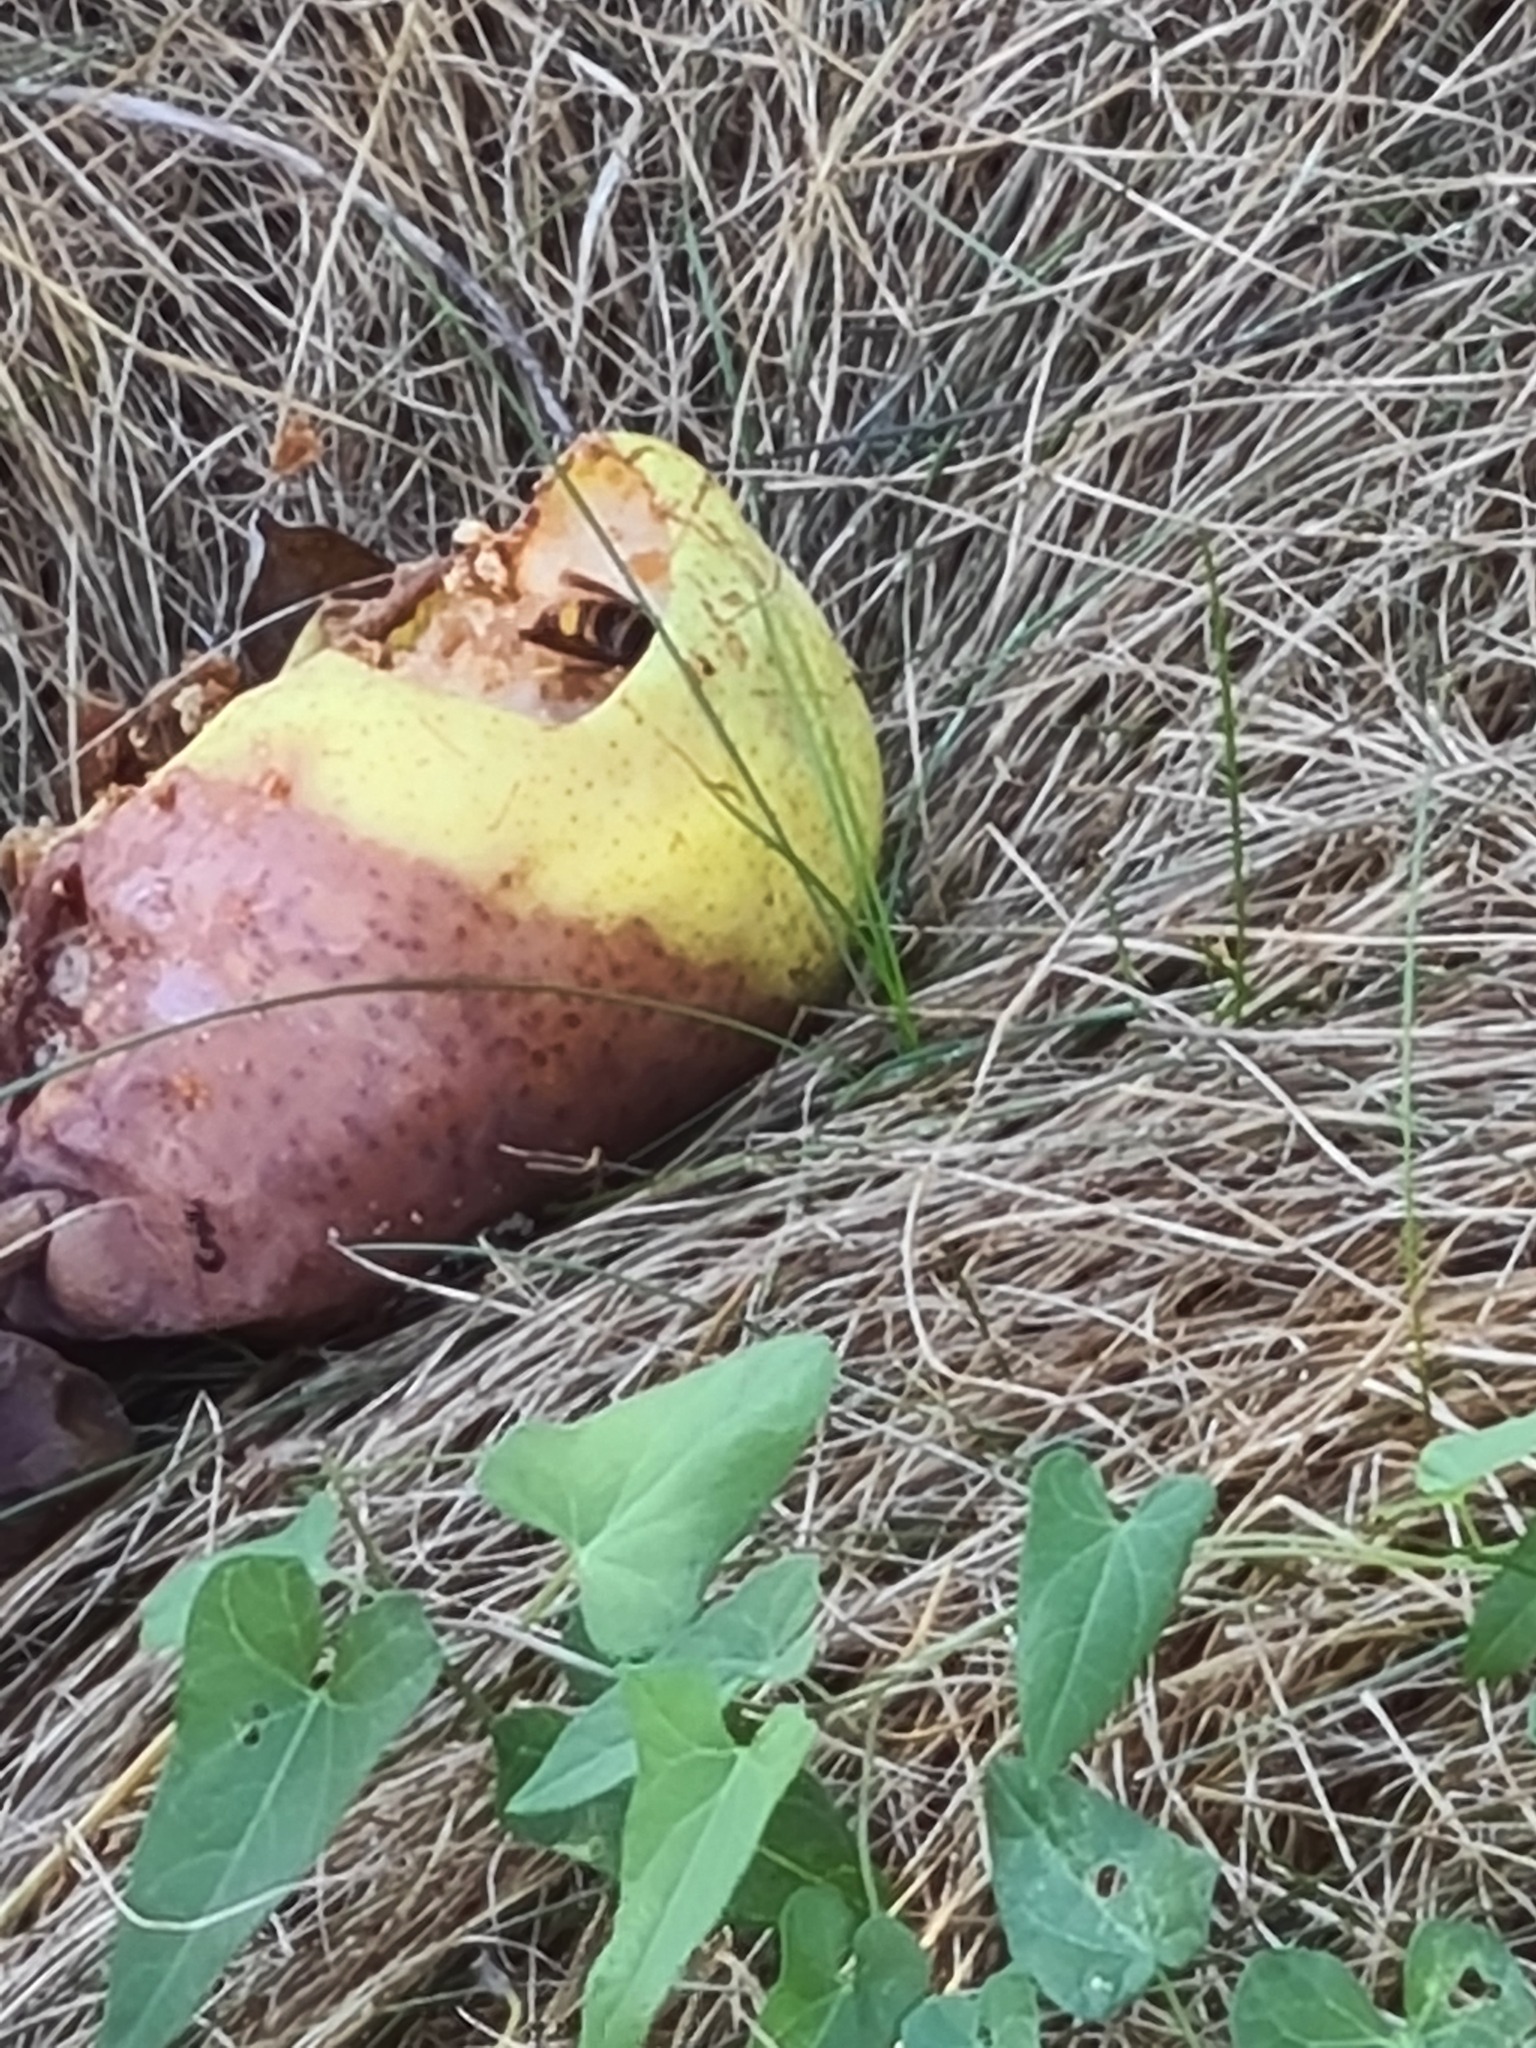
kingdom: Animalia
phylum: Arthropoda
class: Insecta
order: Hymenoptera
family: Vespidae
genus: Vespa
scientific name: Vespa velutina
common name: Asian hornet
